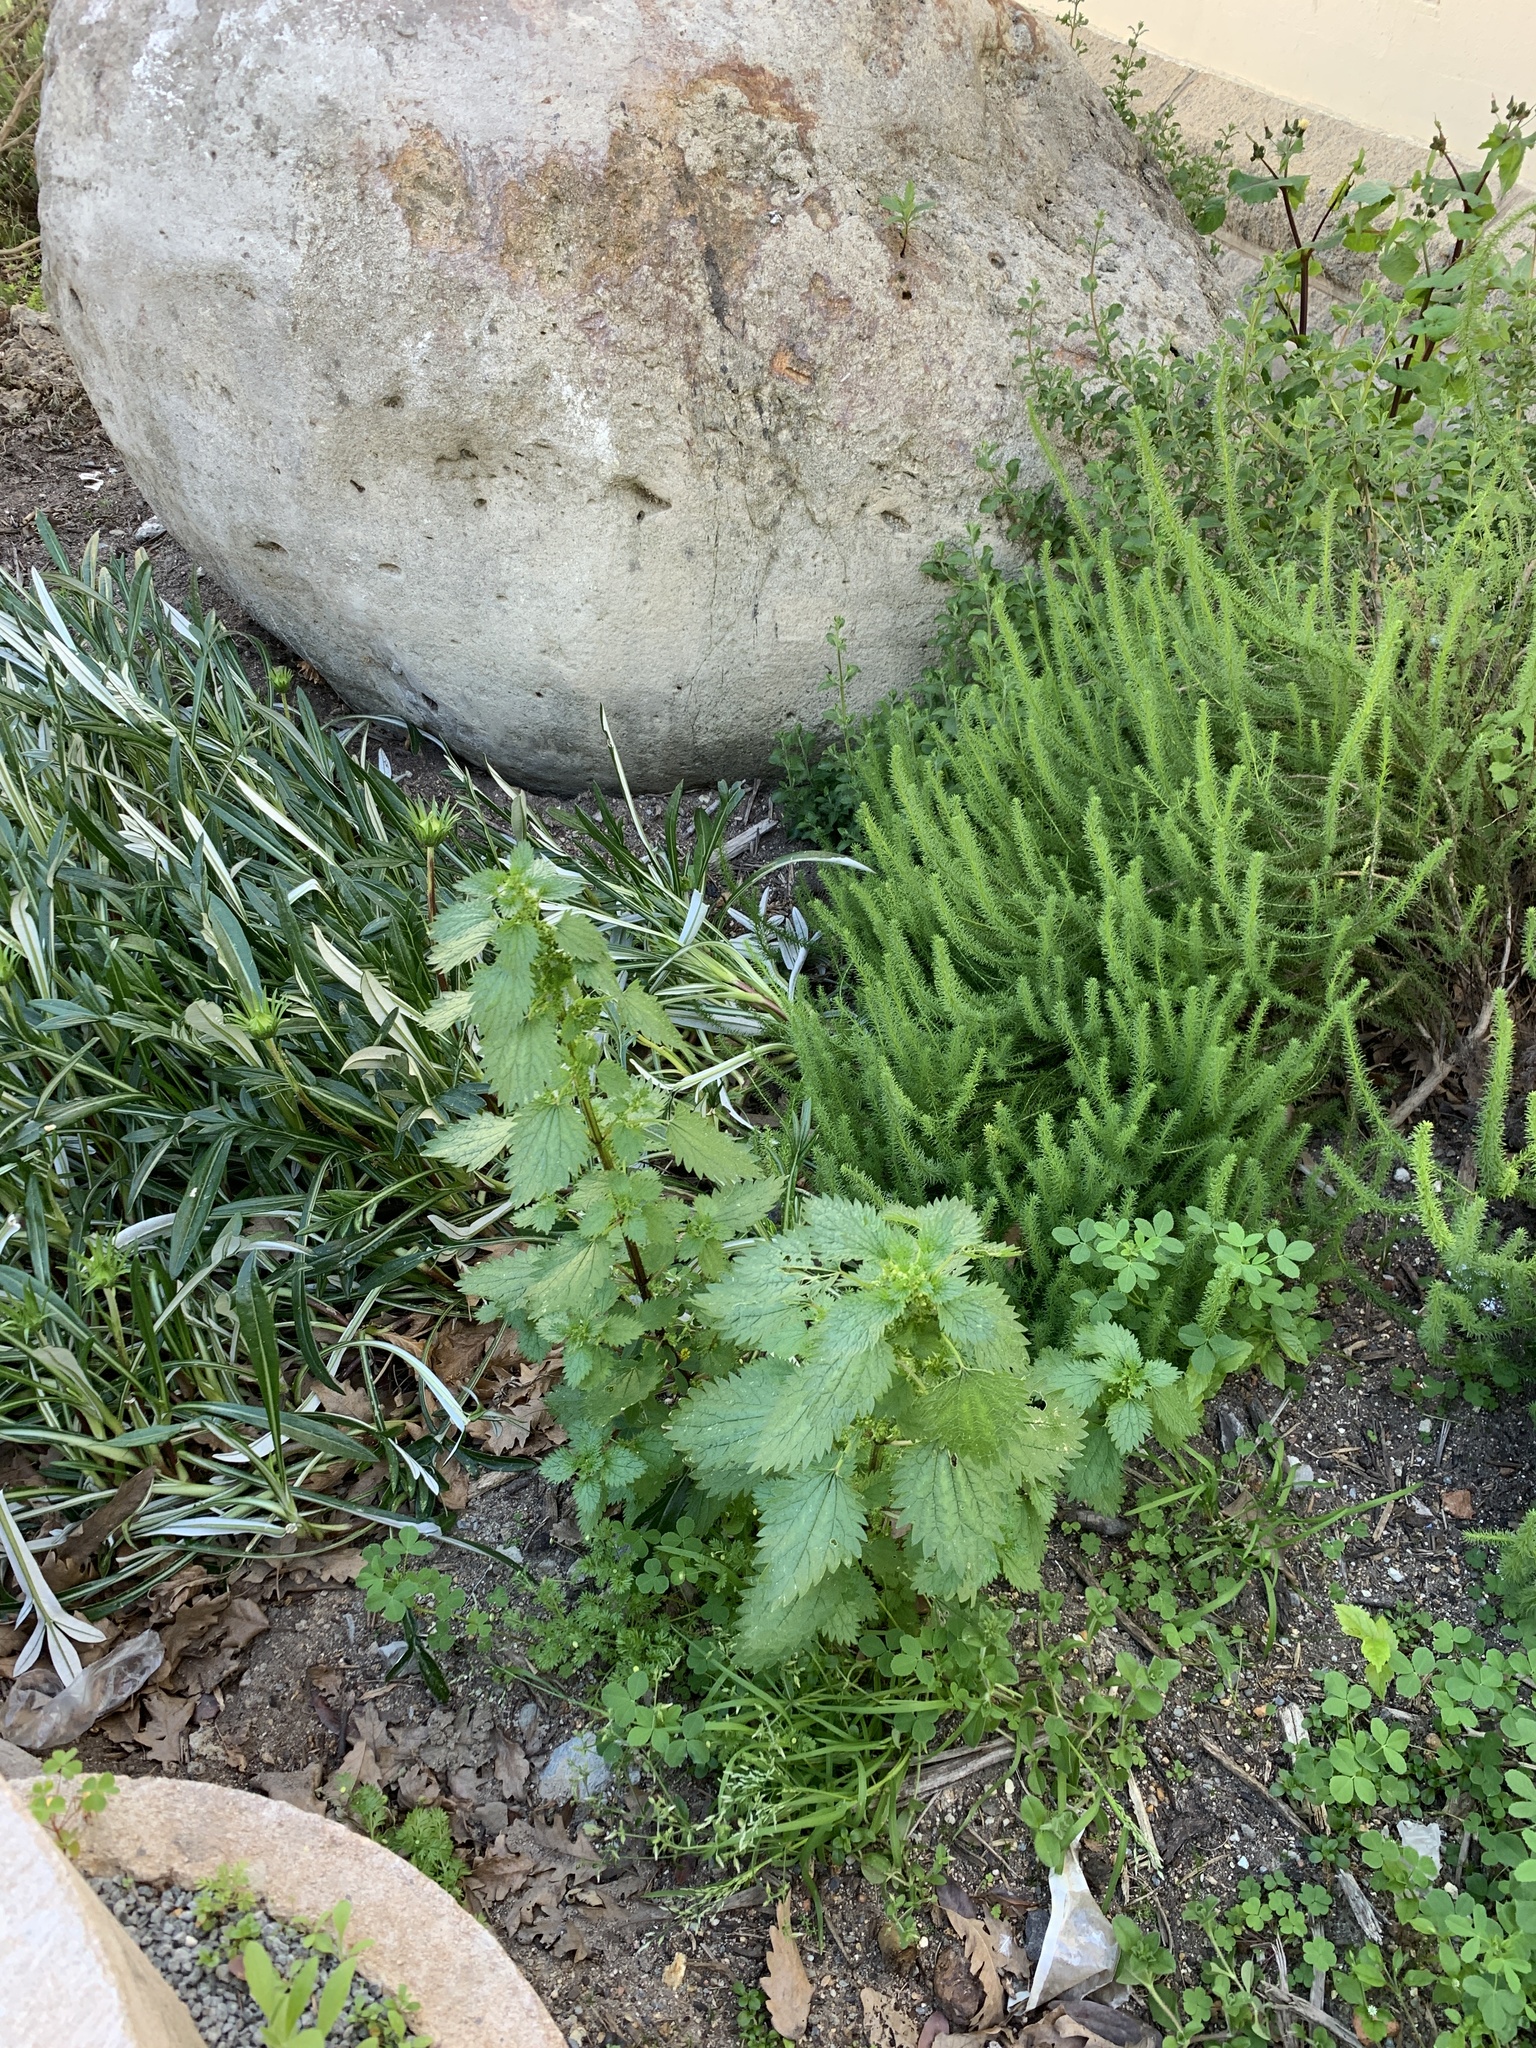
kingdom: Plantae
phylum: Tracheophyta
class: Magnoliopsida
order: Rosales
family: Urticaceae
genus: Urtica
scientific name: Urtica urens
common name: Dwarf nettle
